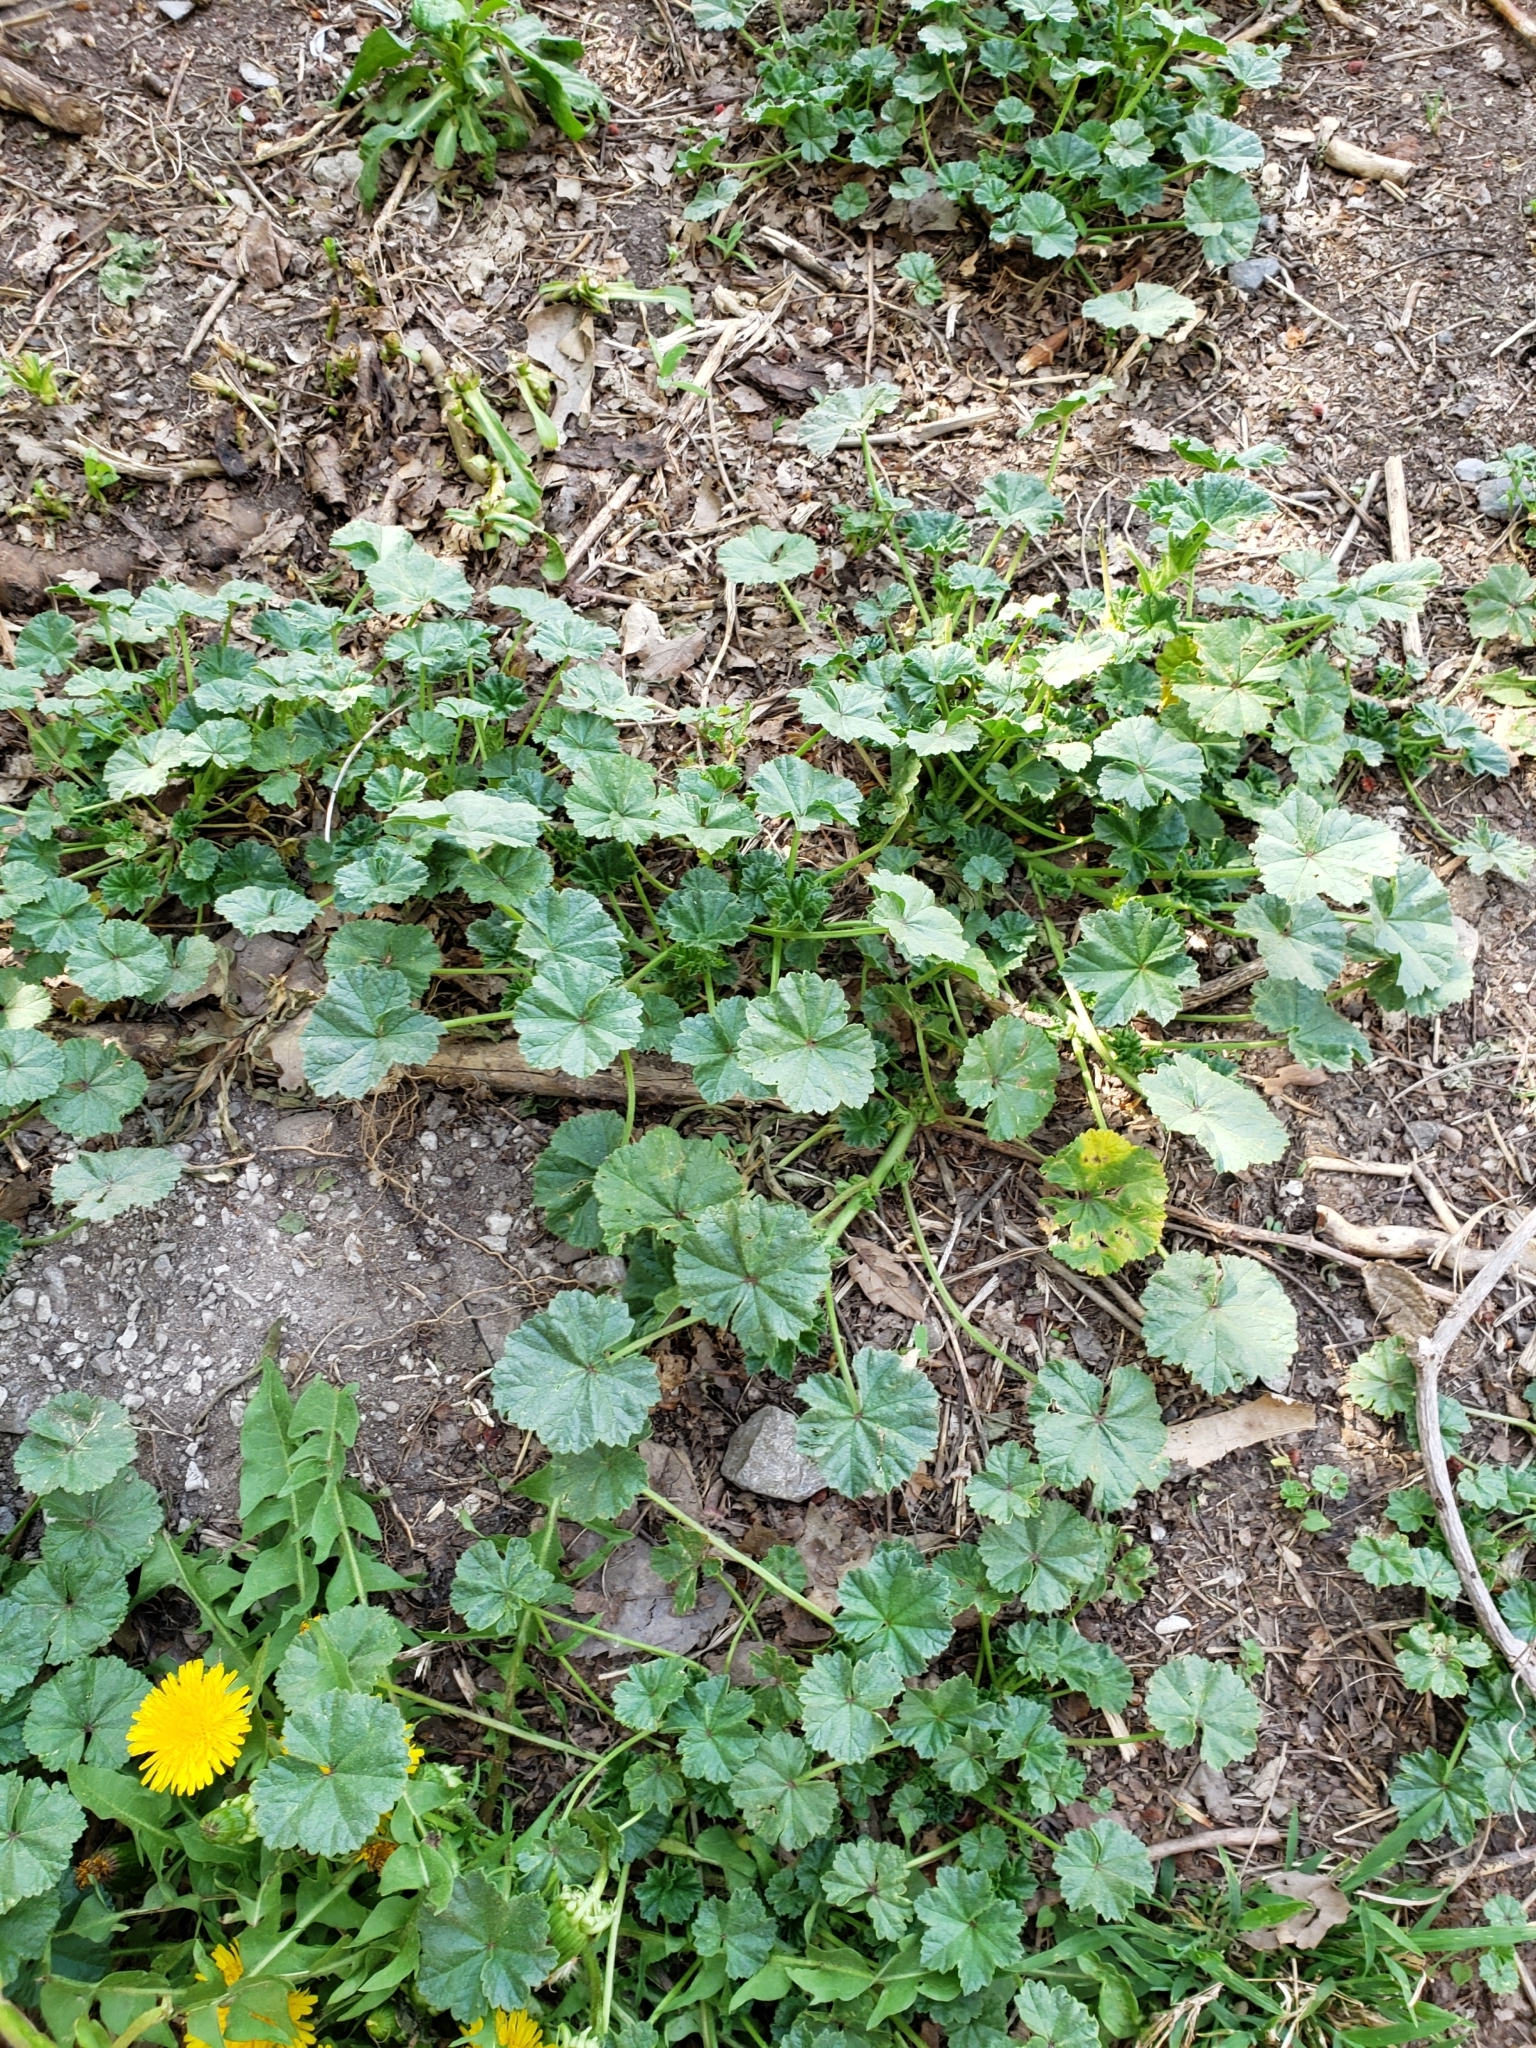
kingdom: Plantae
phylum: Tracheophyta
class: Magnoliopsida
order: Malvales
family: Malvaceae
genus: Malva
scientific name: Malva neglecta
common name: Common mallow
